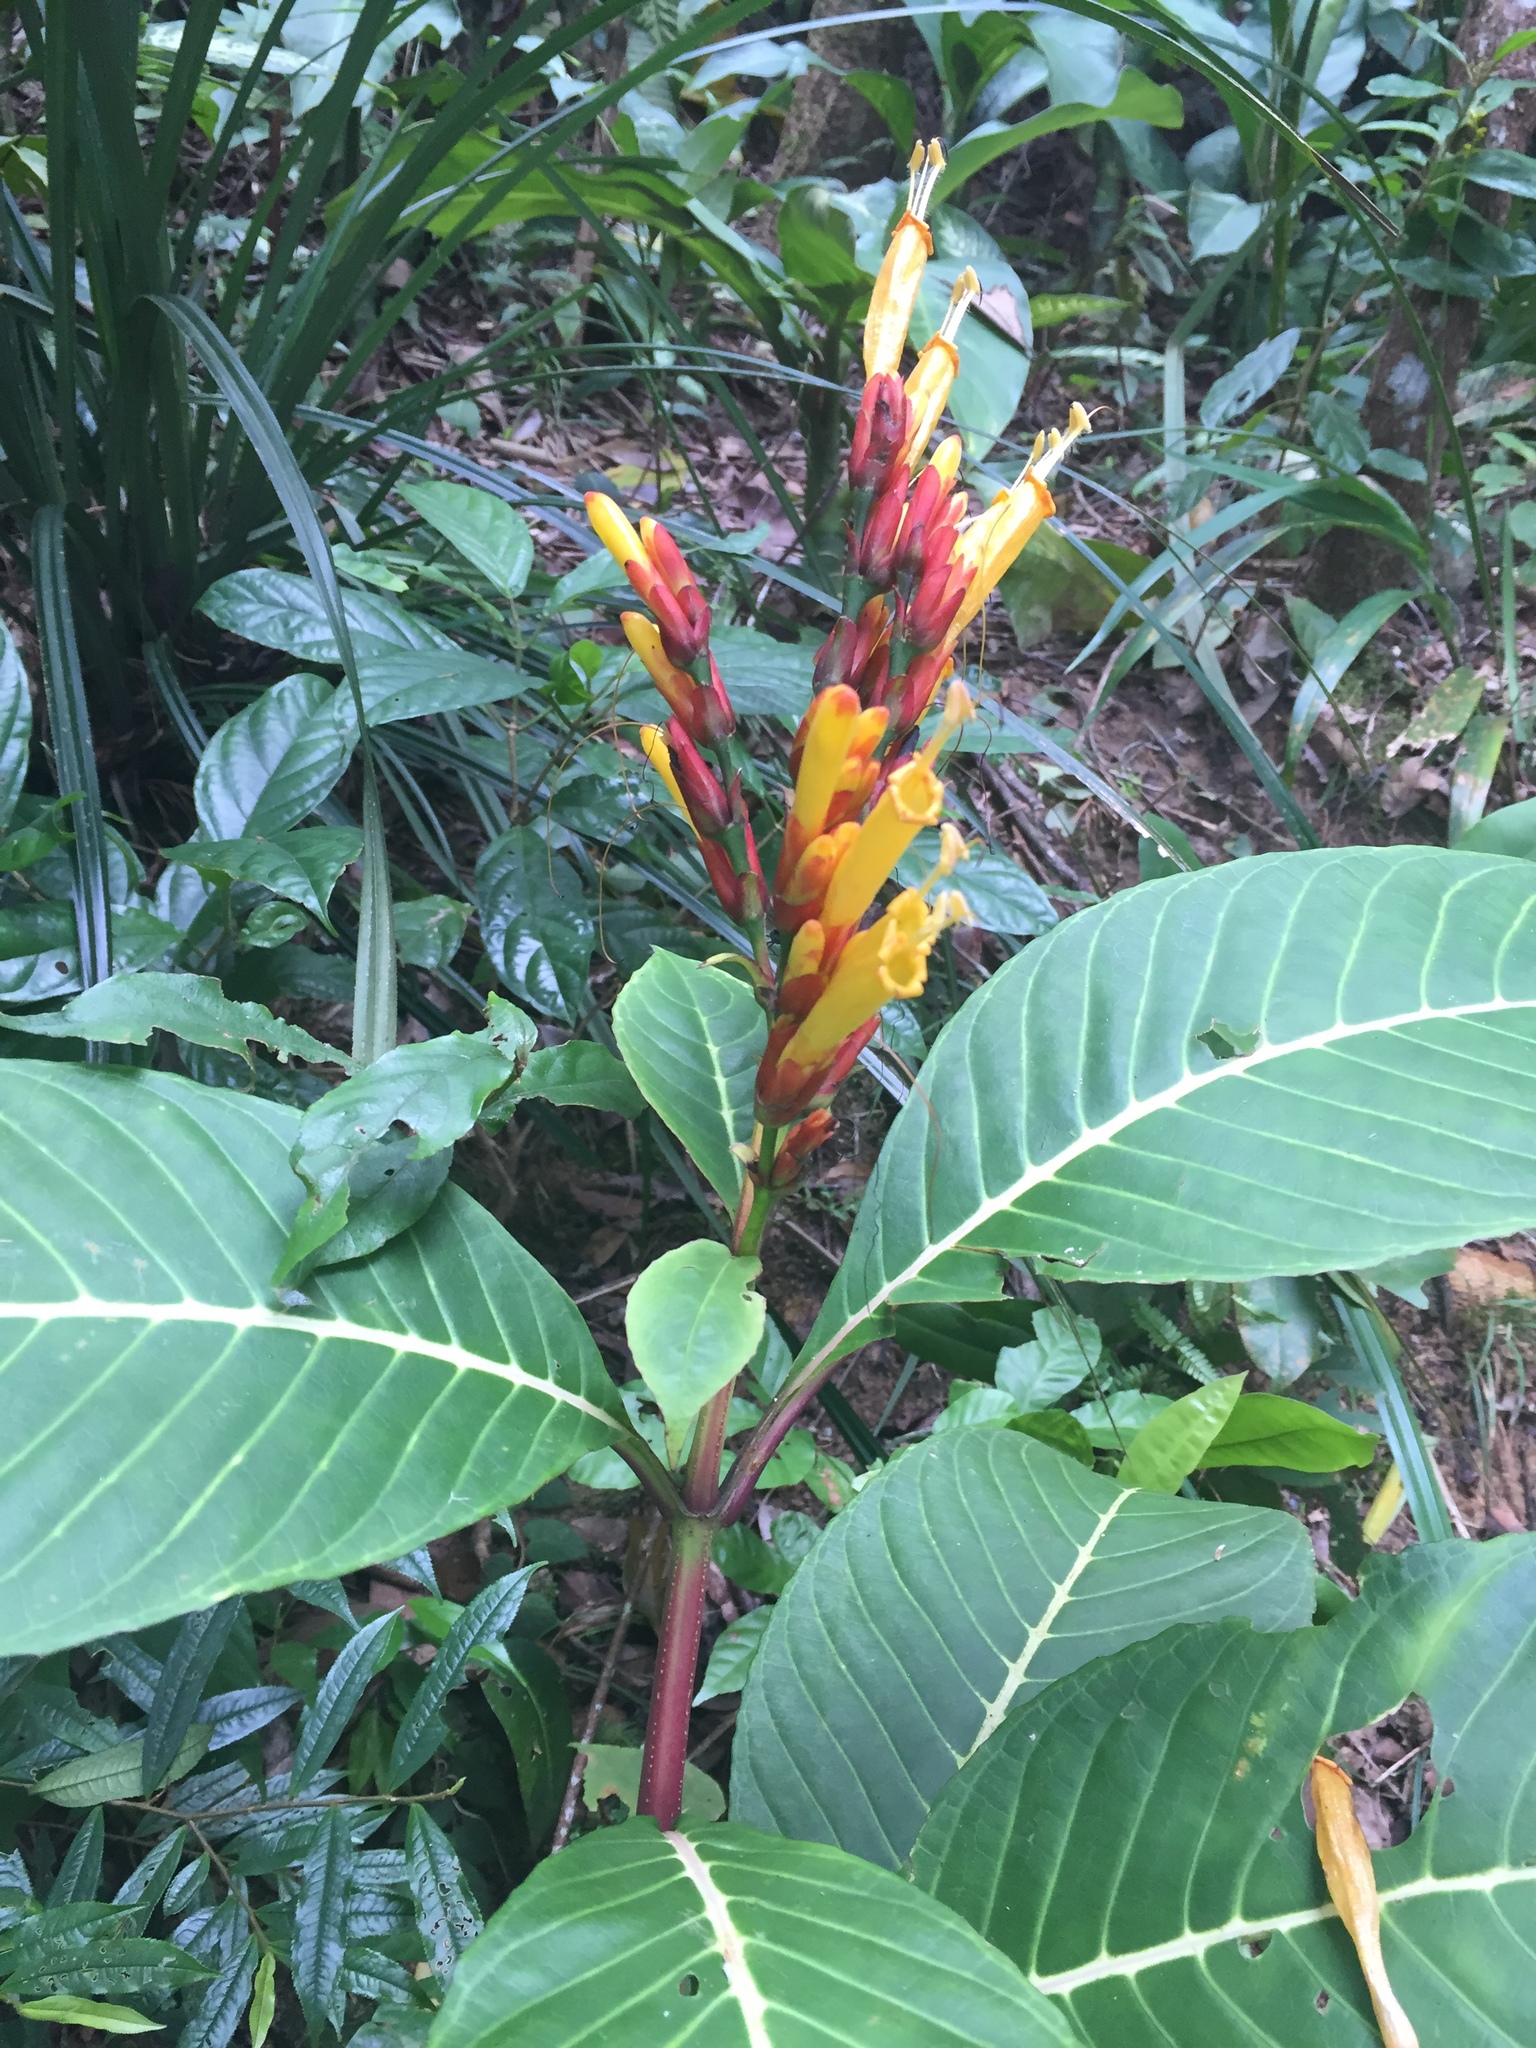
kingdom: Plantae
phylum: Tracheophyta
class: Magnoliopsida
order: Lamiales
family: Acanthaceae
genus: Sanchezia
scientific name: Sanchezia parvibracteata
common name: Sanchezia
